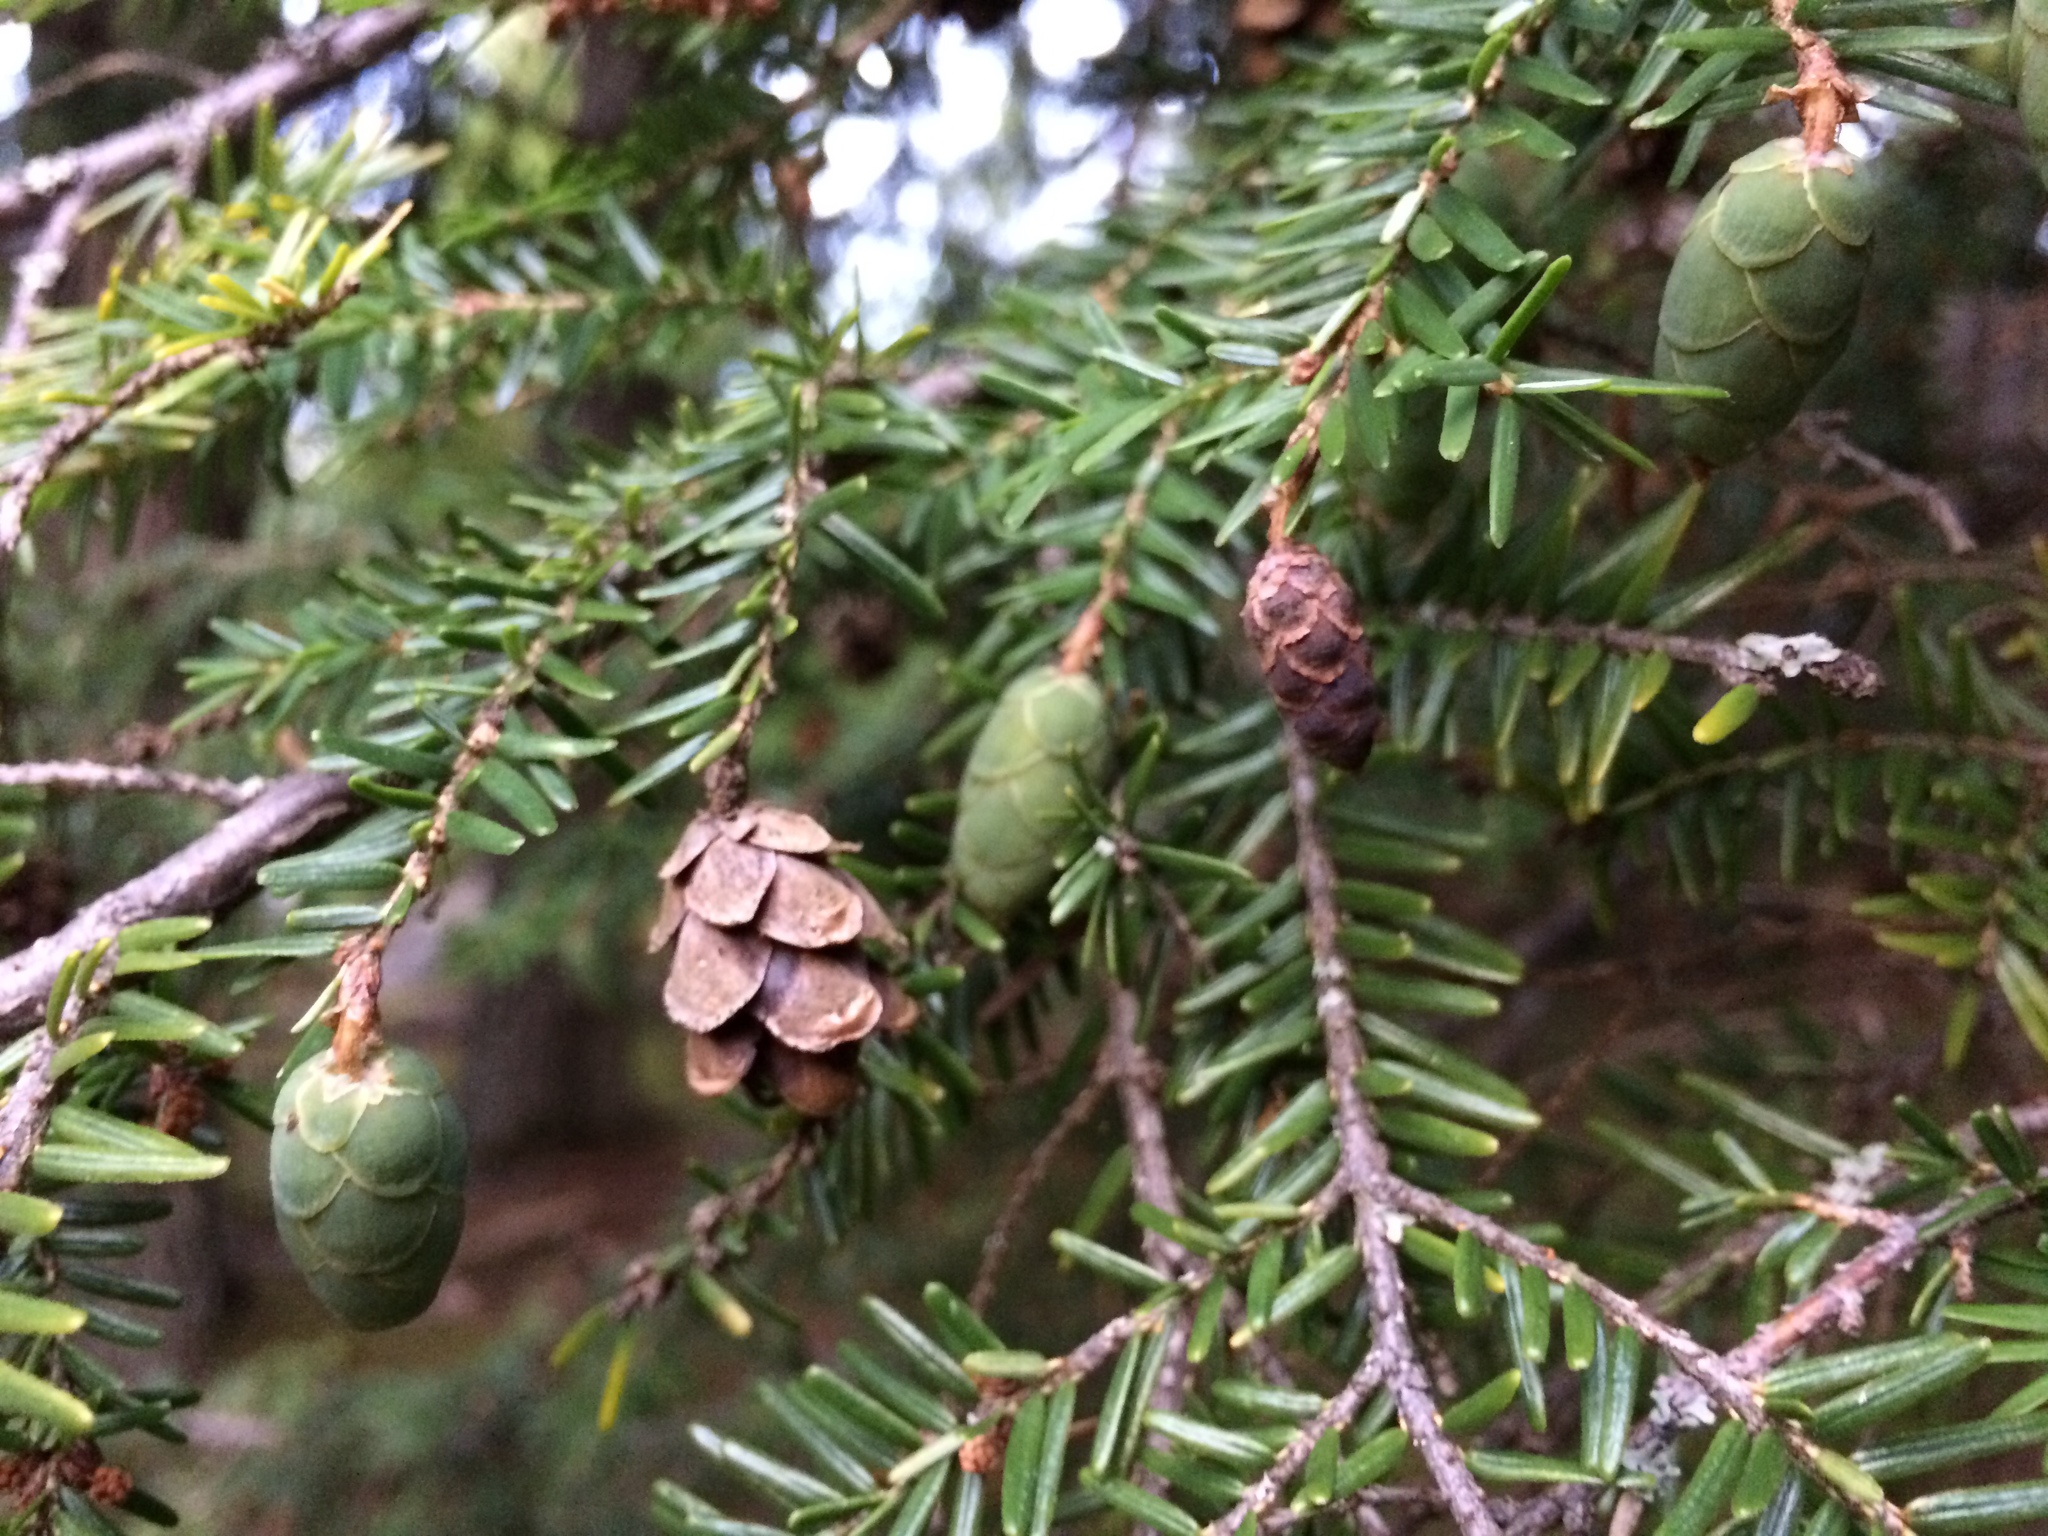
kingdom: Plantae
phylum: Tracheophyta
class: Pinopsida
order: Pinales
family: Pinaceae
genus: Tsuga
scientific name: Tsuga canadensis
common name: Eastern hemlock
